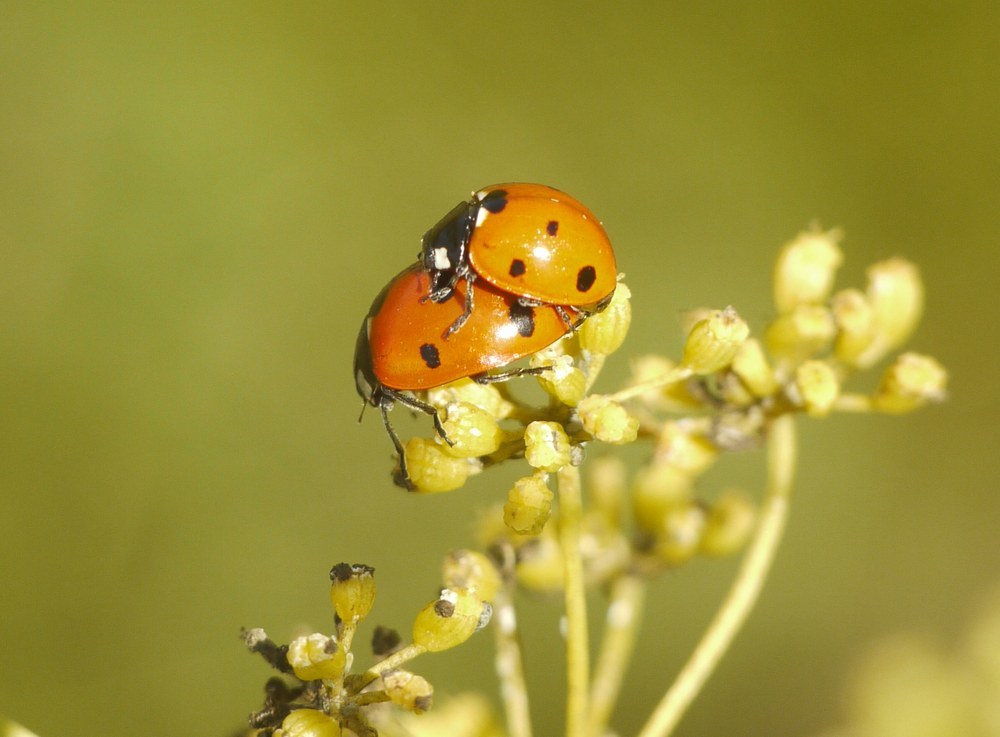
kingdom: Animalia
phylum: Arthropoda
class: Insecta
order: Coleoptera
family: Coccinellidae
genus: Coccinella
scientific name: Coccinella septempunctata
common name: Sevenspotted lady beetle
